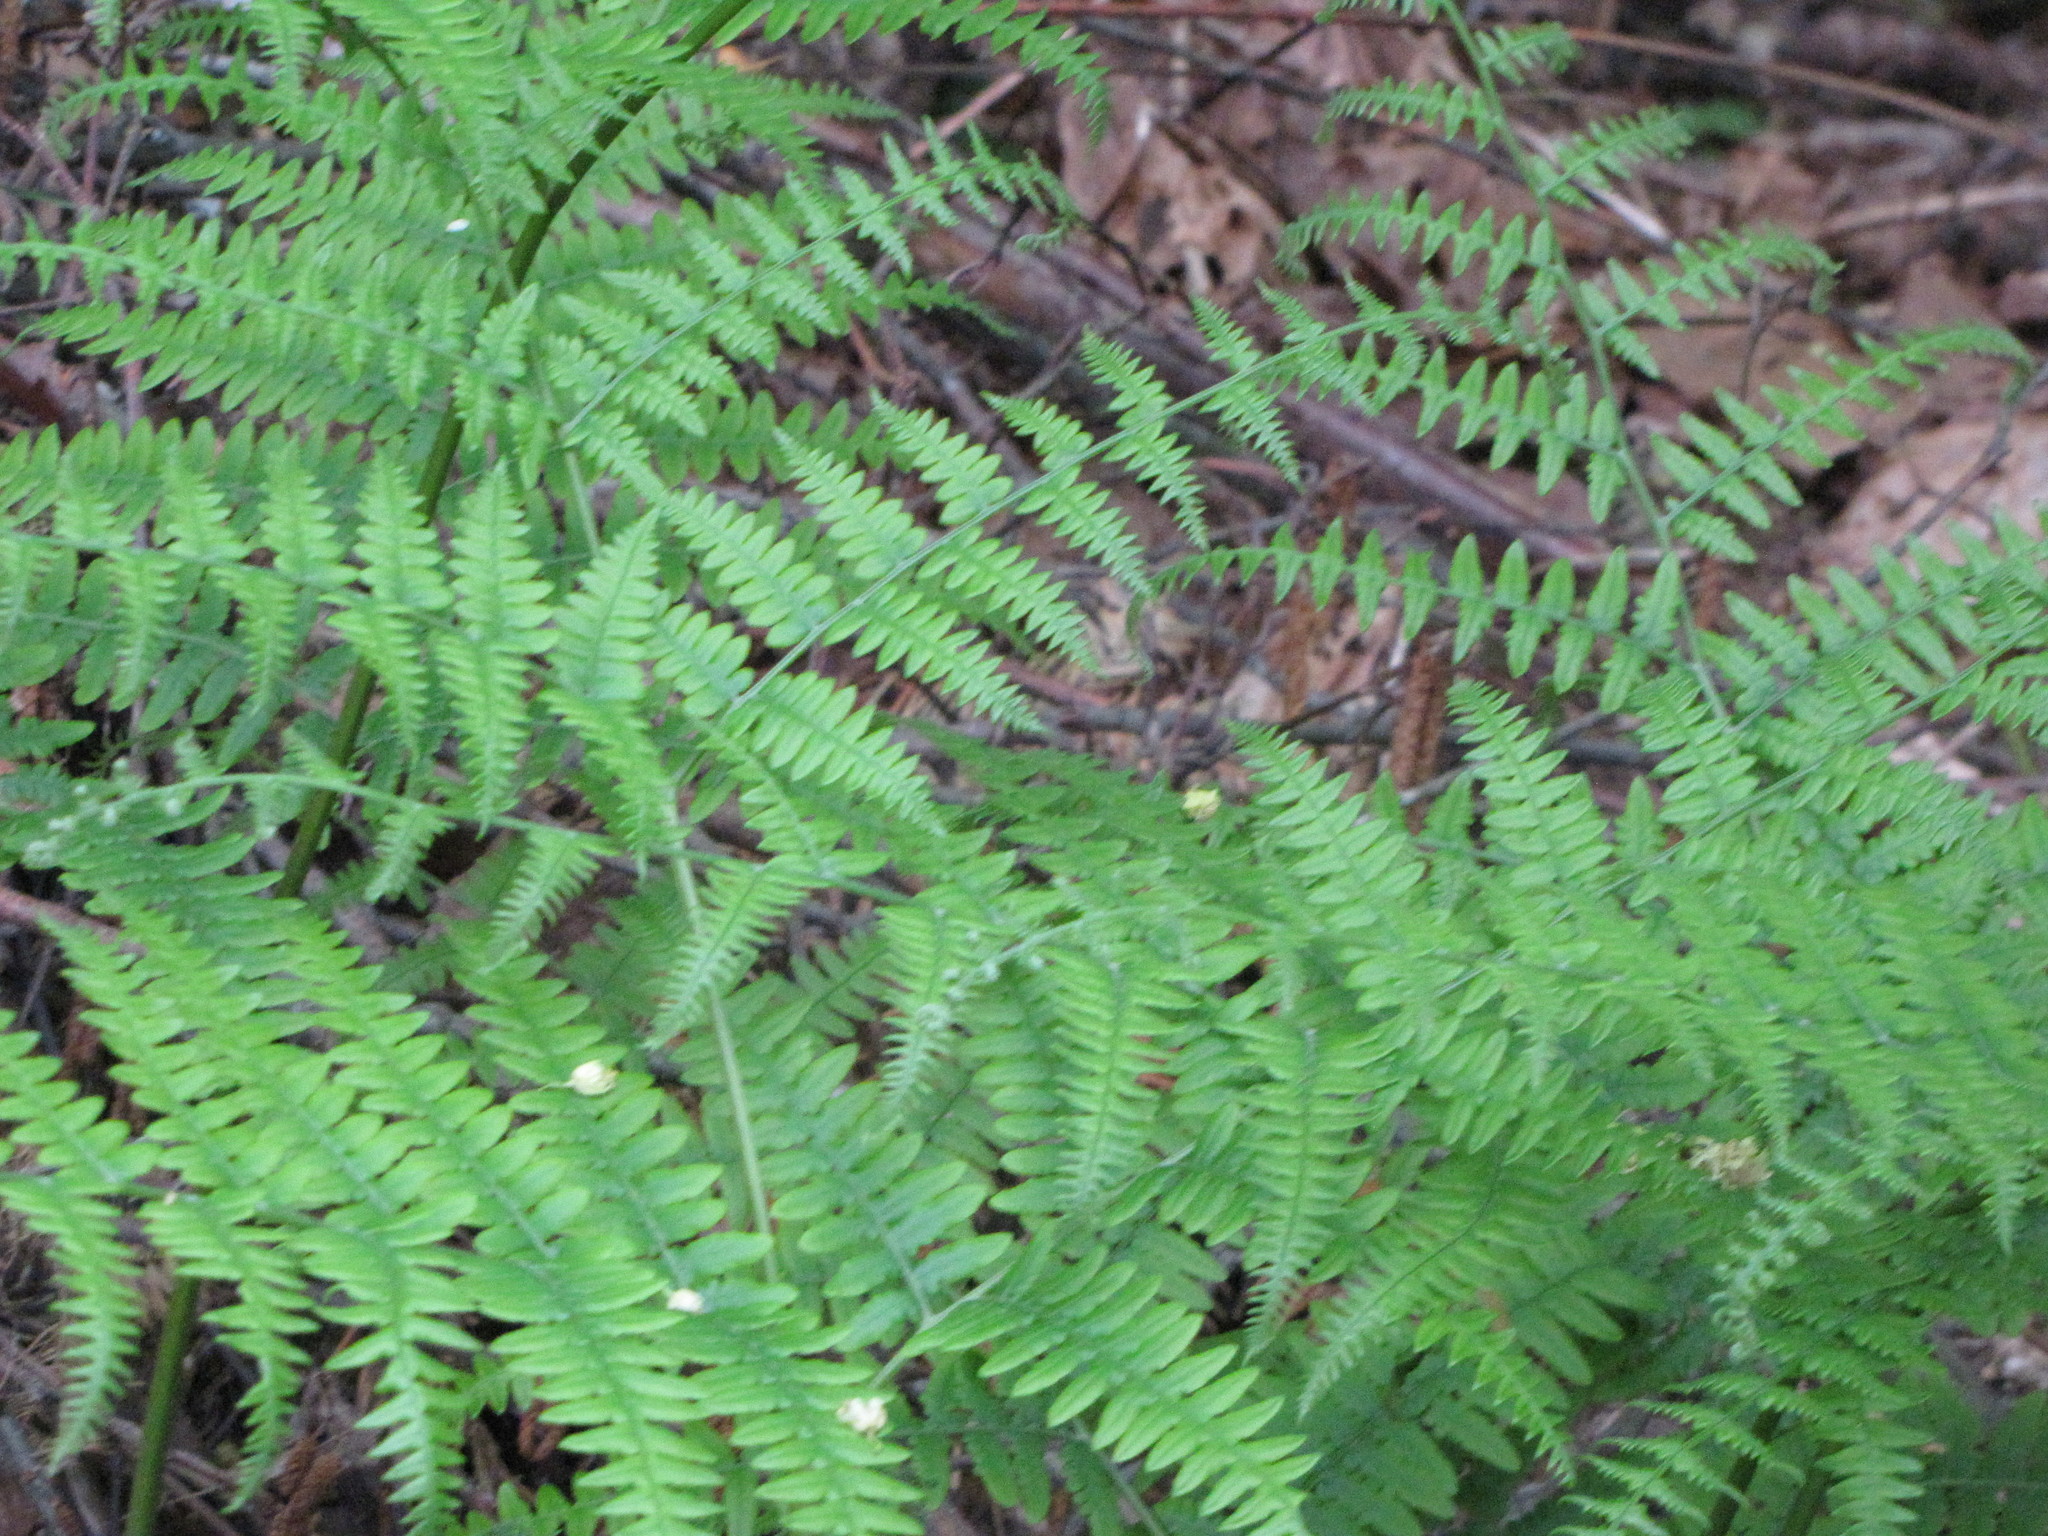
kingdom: Plantae
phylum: Tracheophyta
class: Polypodiopsida
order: Polypodiales
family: Dennstaedtiaceae
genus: Pteridium
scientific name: Pteridium aquilinum
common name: Bracken
